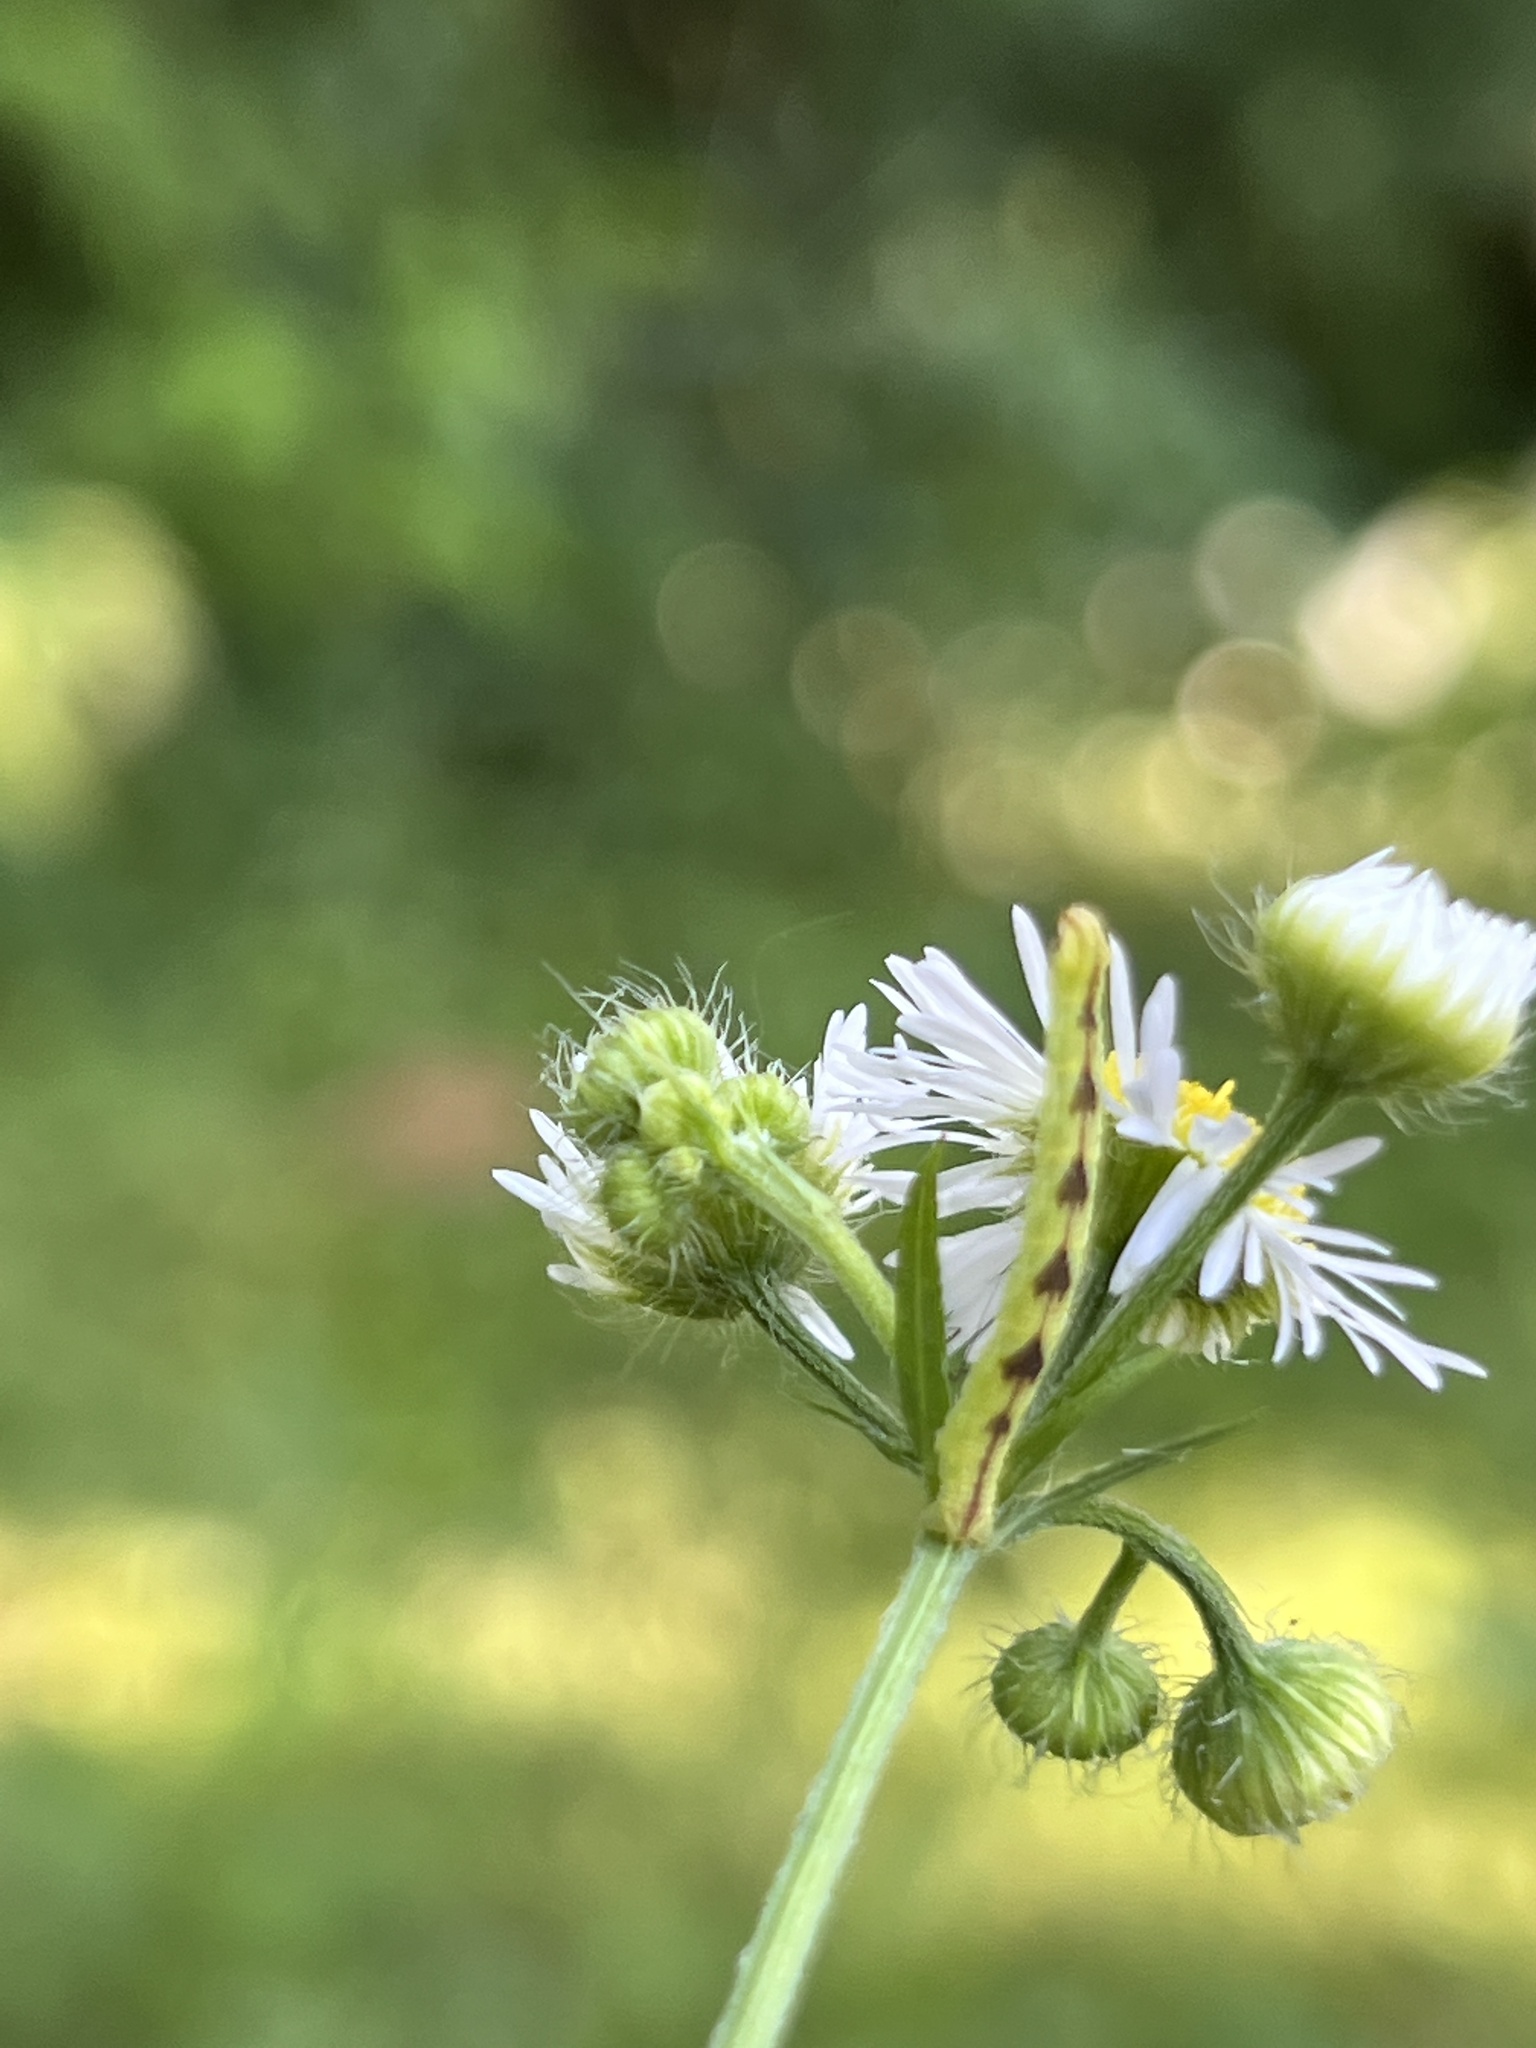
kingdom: Animalia
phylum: Arthropoda
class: Insecta
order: Lepidoptera
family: Geometridae
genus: Eupithecia
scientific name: Eupithecia miserulata
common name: Common eupithecia
